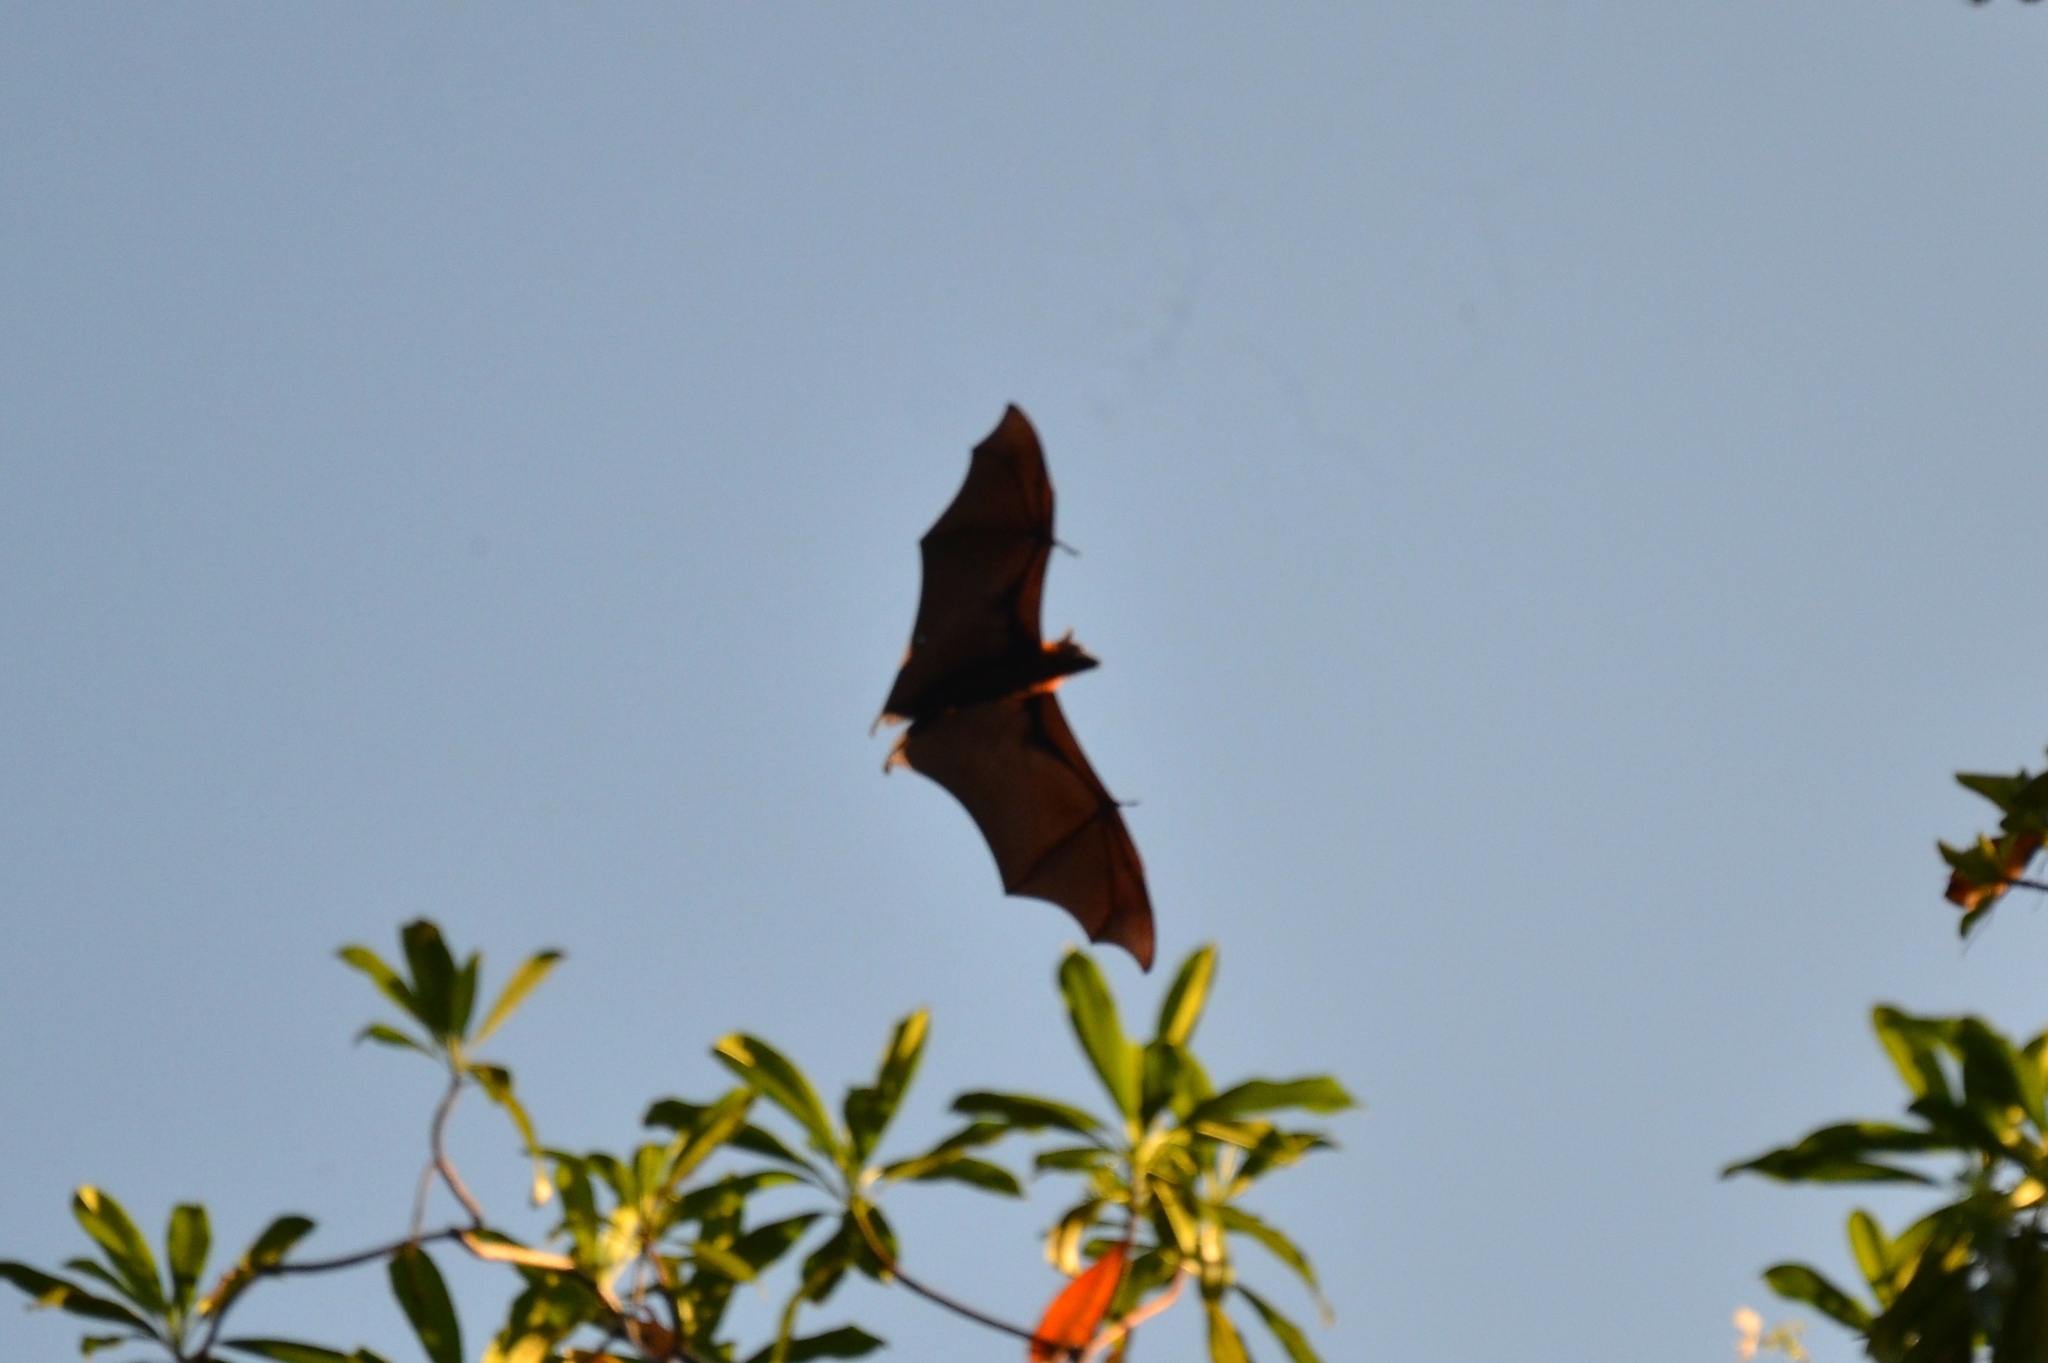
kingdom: Animalia
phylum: Chordata
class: Mammalia
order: Chiroptera
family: Pteropodidae
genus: Pteropus
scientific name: Pteropus vampyrus
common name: Large flying fox
